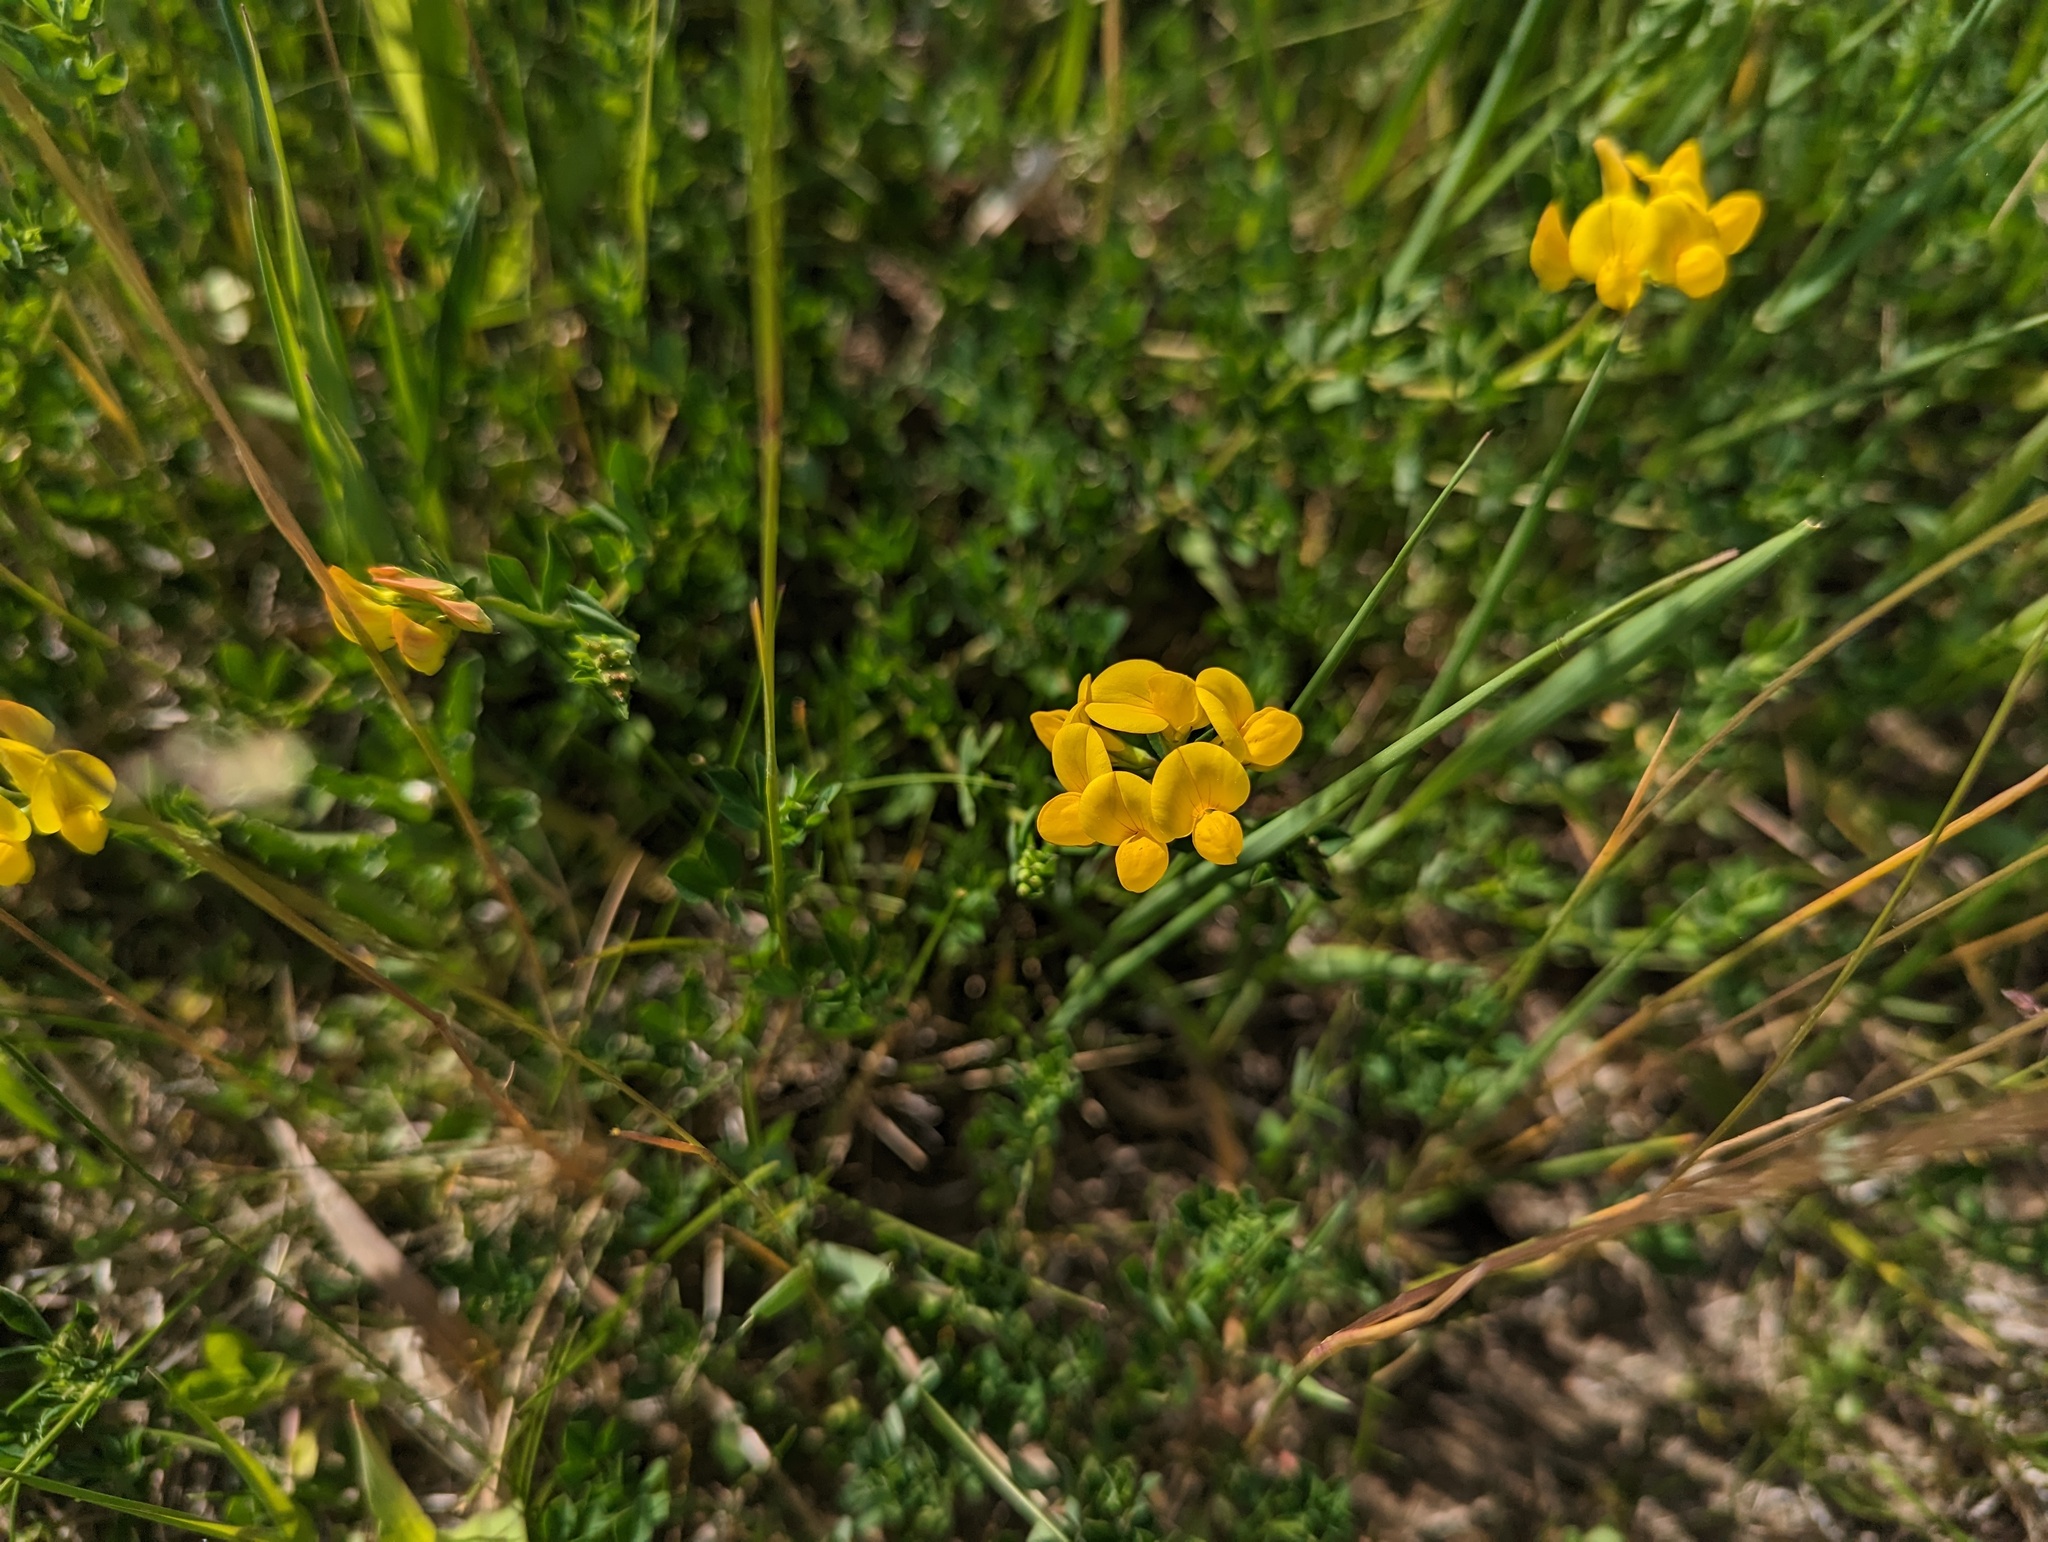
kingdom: Plantae
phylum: Tracheophyta
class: Magnoliopsida
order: Fabales
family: Fabaceae
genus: Lotus
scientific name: Lotus corniculatus
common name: Common bird's-foot-trefoil
